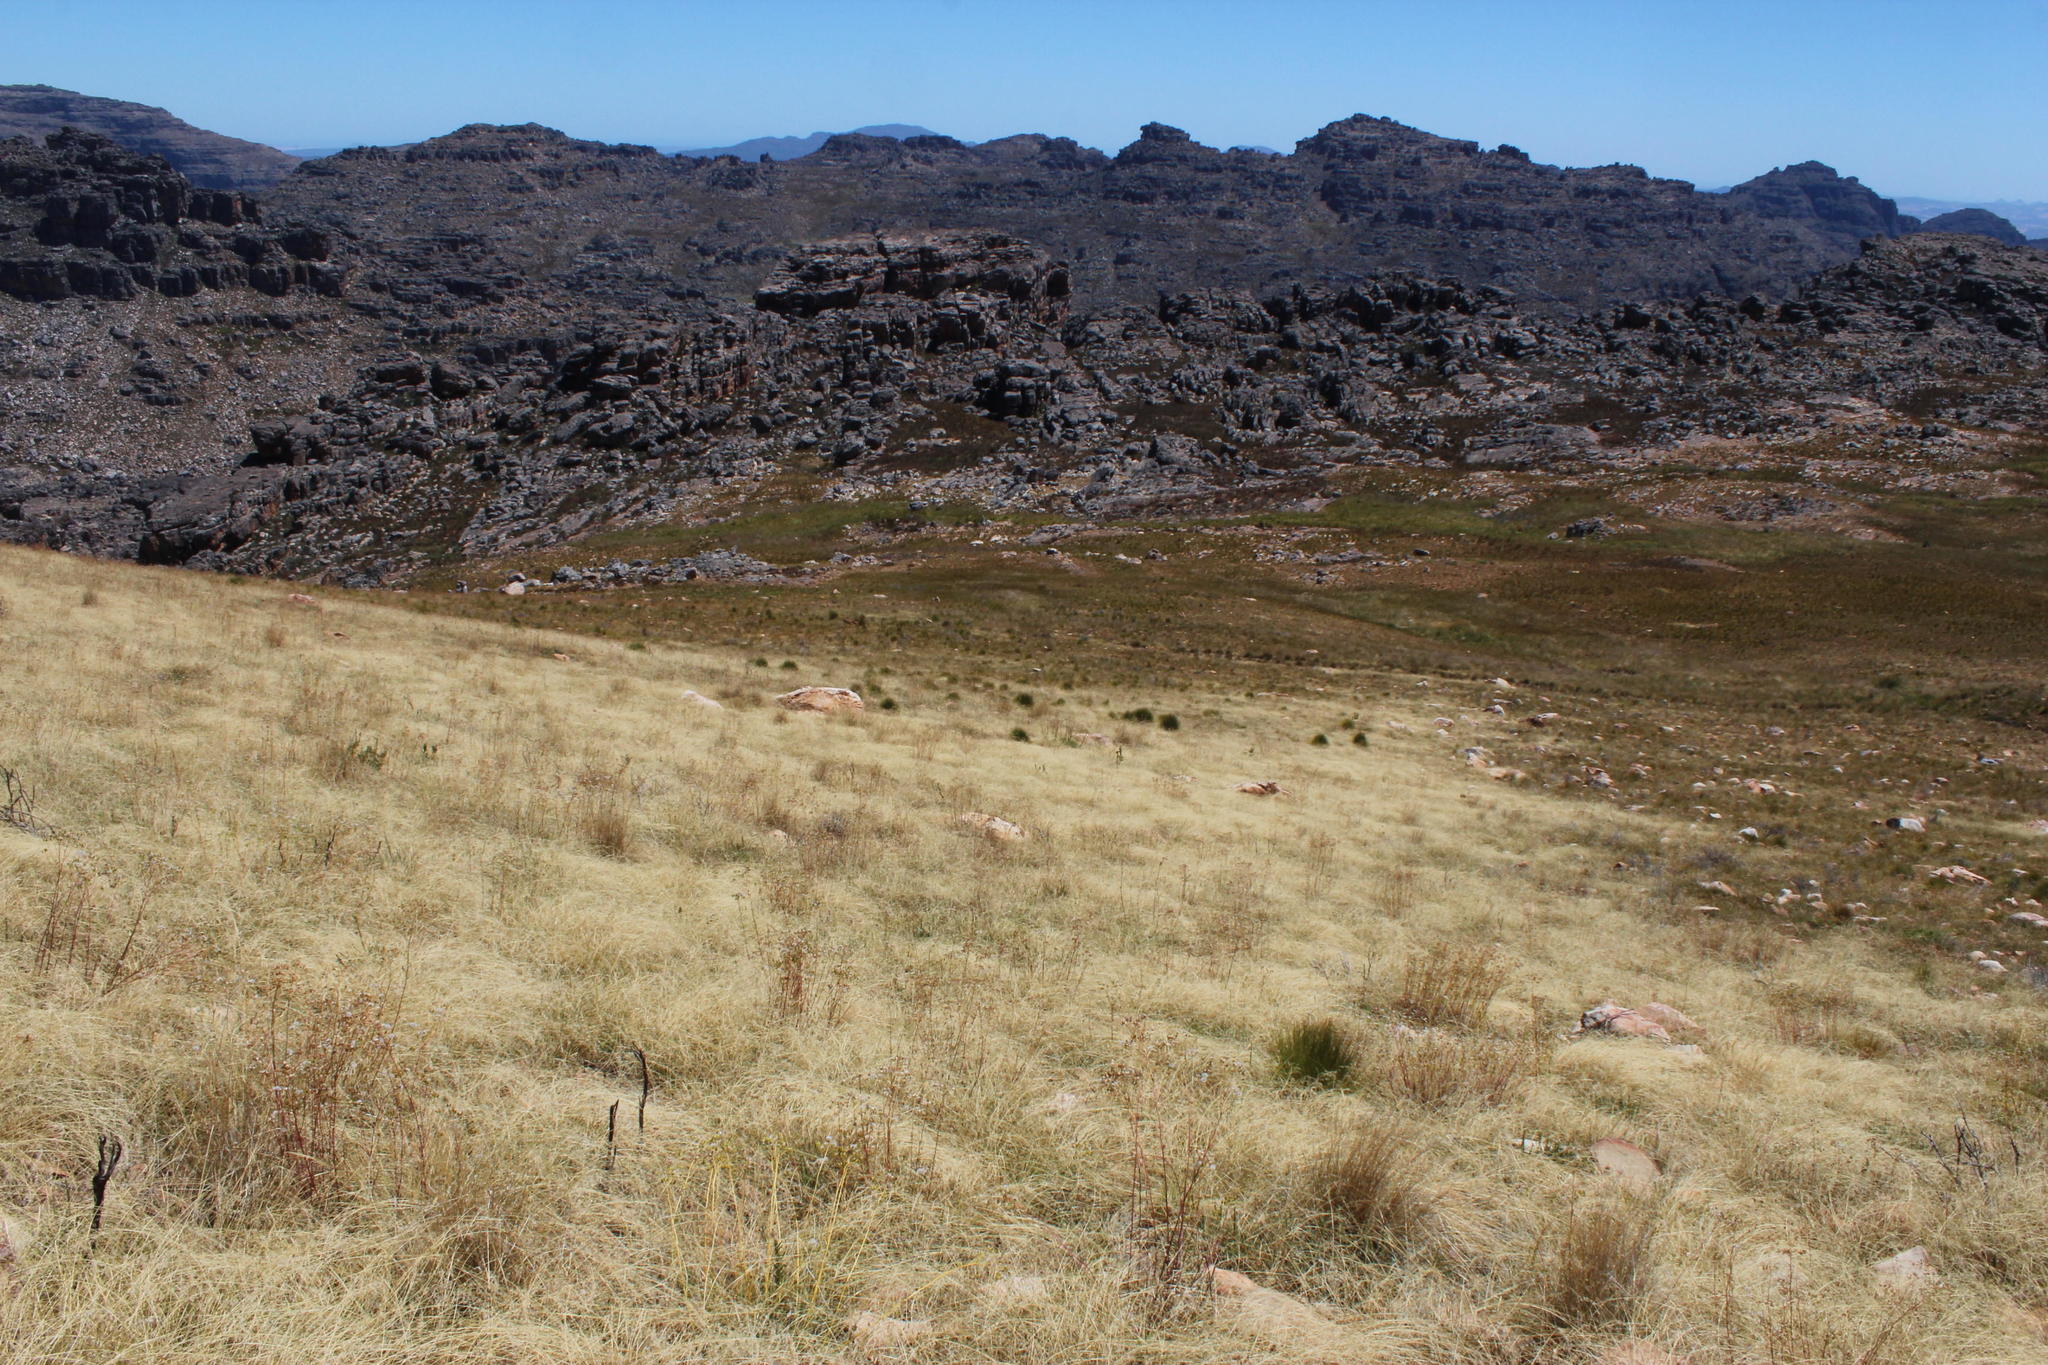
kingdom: Plantae
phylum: Tracheophyta
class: Liliopsida
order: Poales
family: Poaceae
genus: Ehrharta
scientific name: Ehrharta calycina
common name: Perennial veldtgrass
